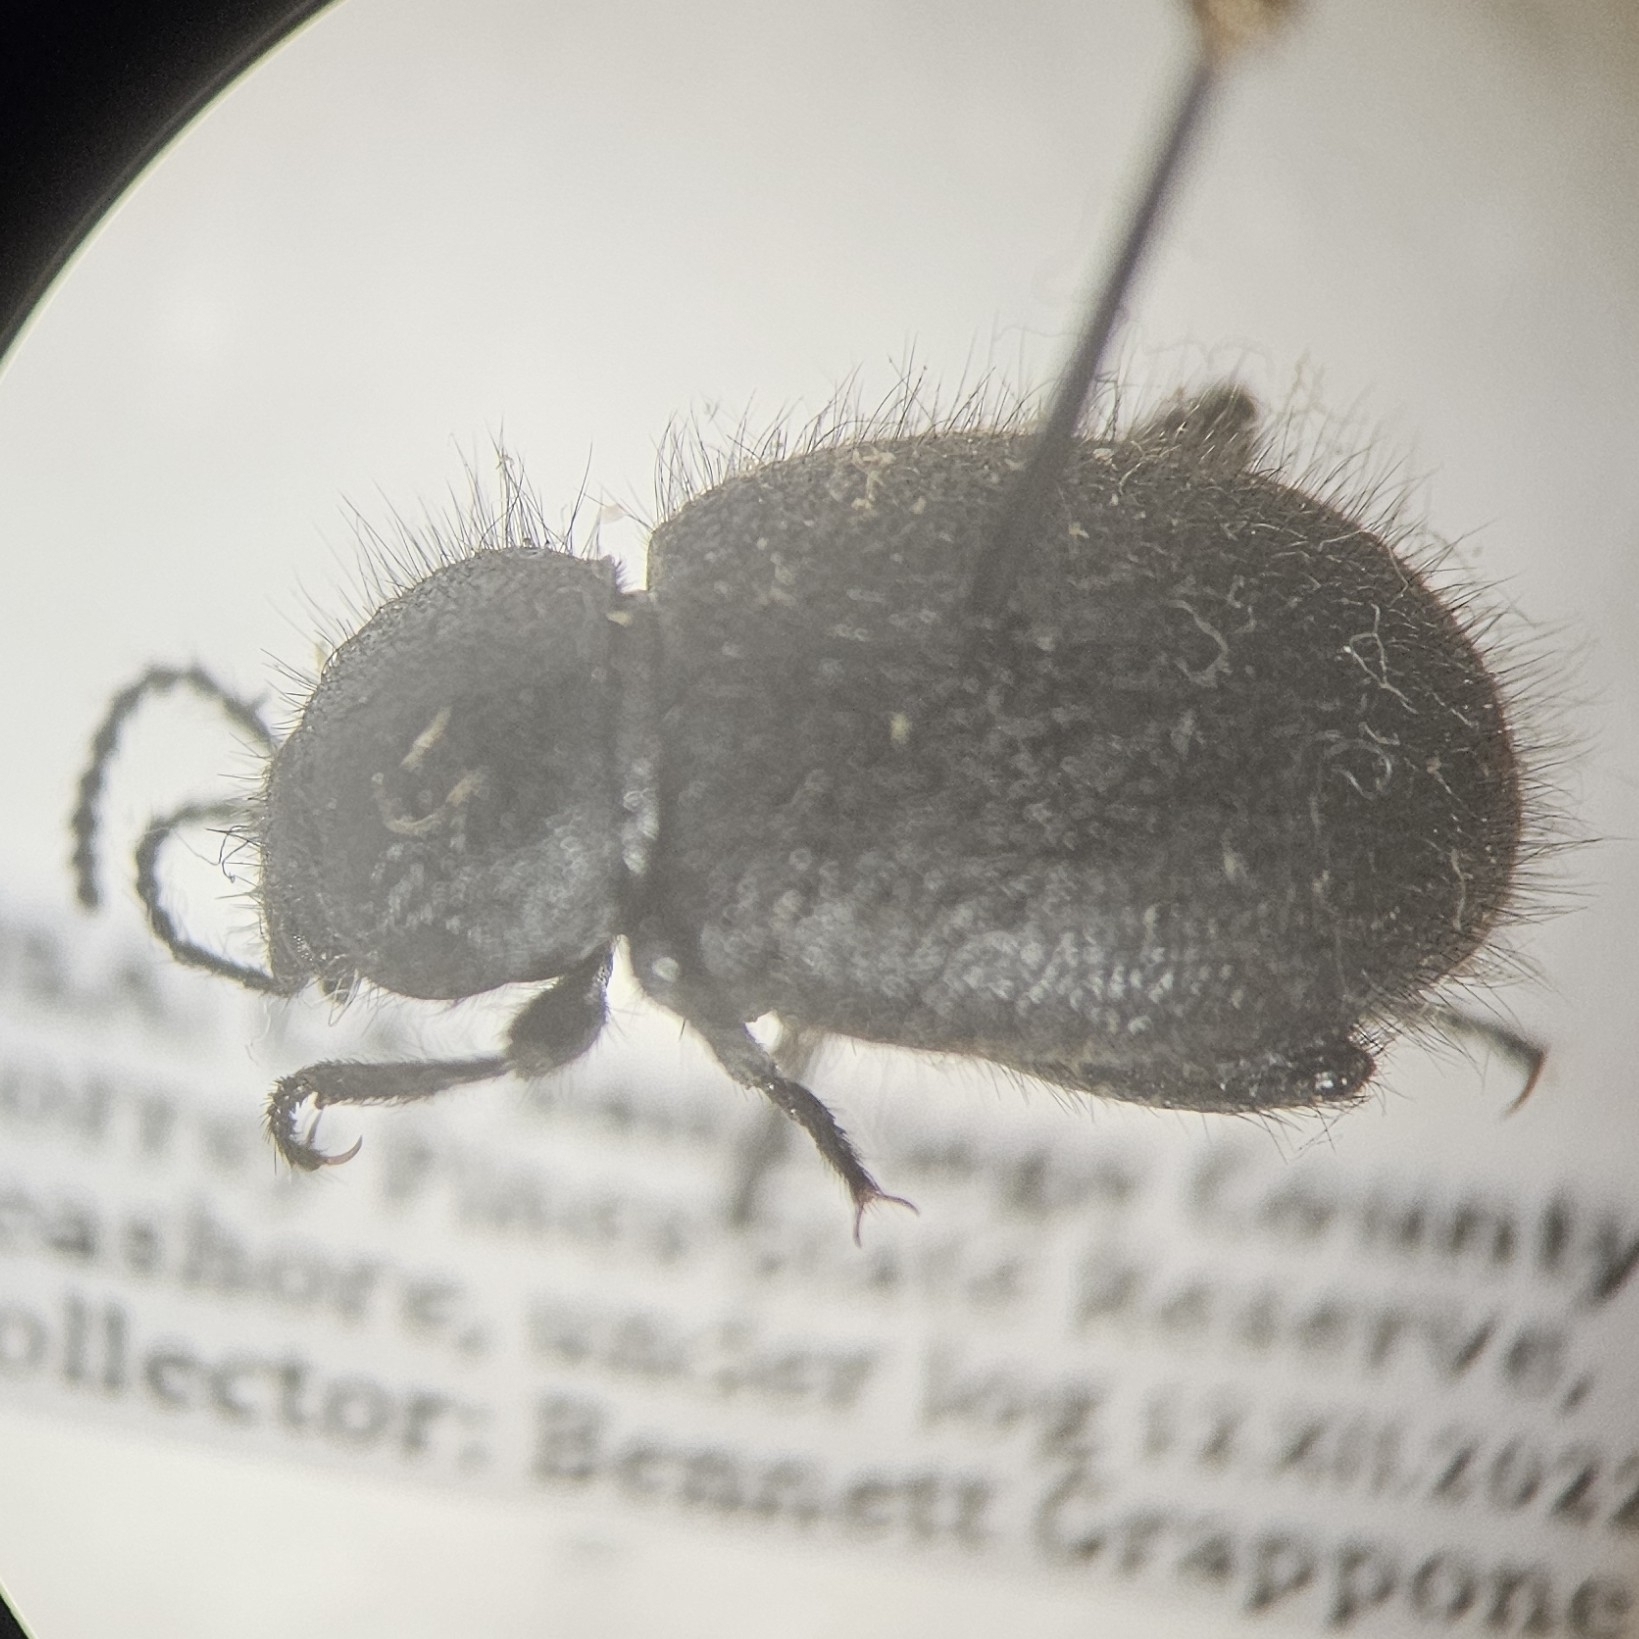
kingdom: Animalia
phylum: Arthropoda
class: Insecta
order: Coleoptera
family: Tenebrionidae
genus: Eleodes
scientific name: Eleodes nigropilosa
